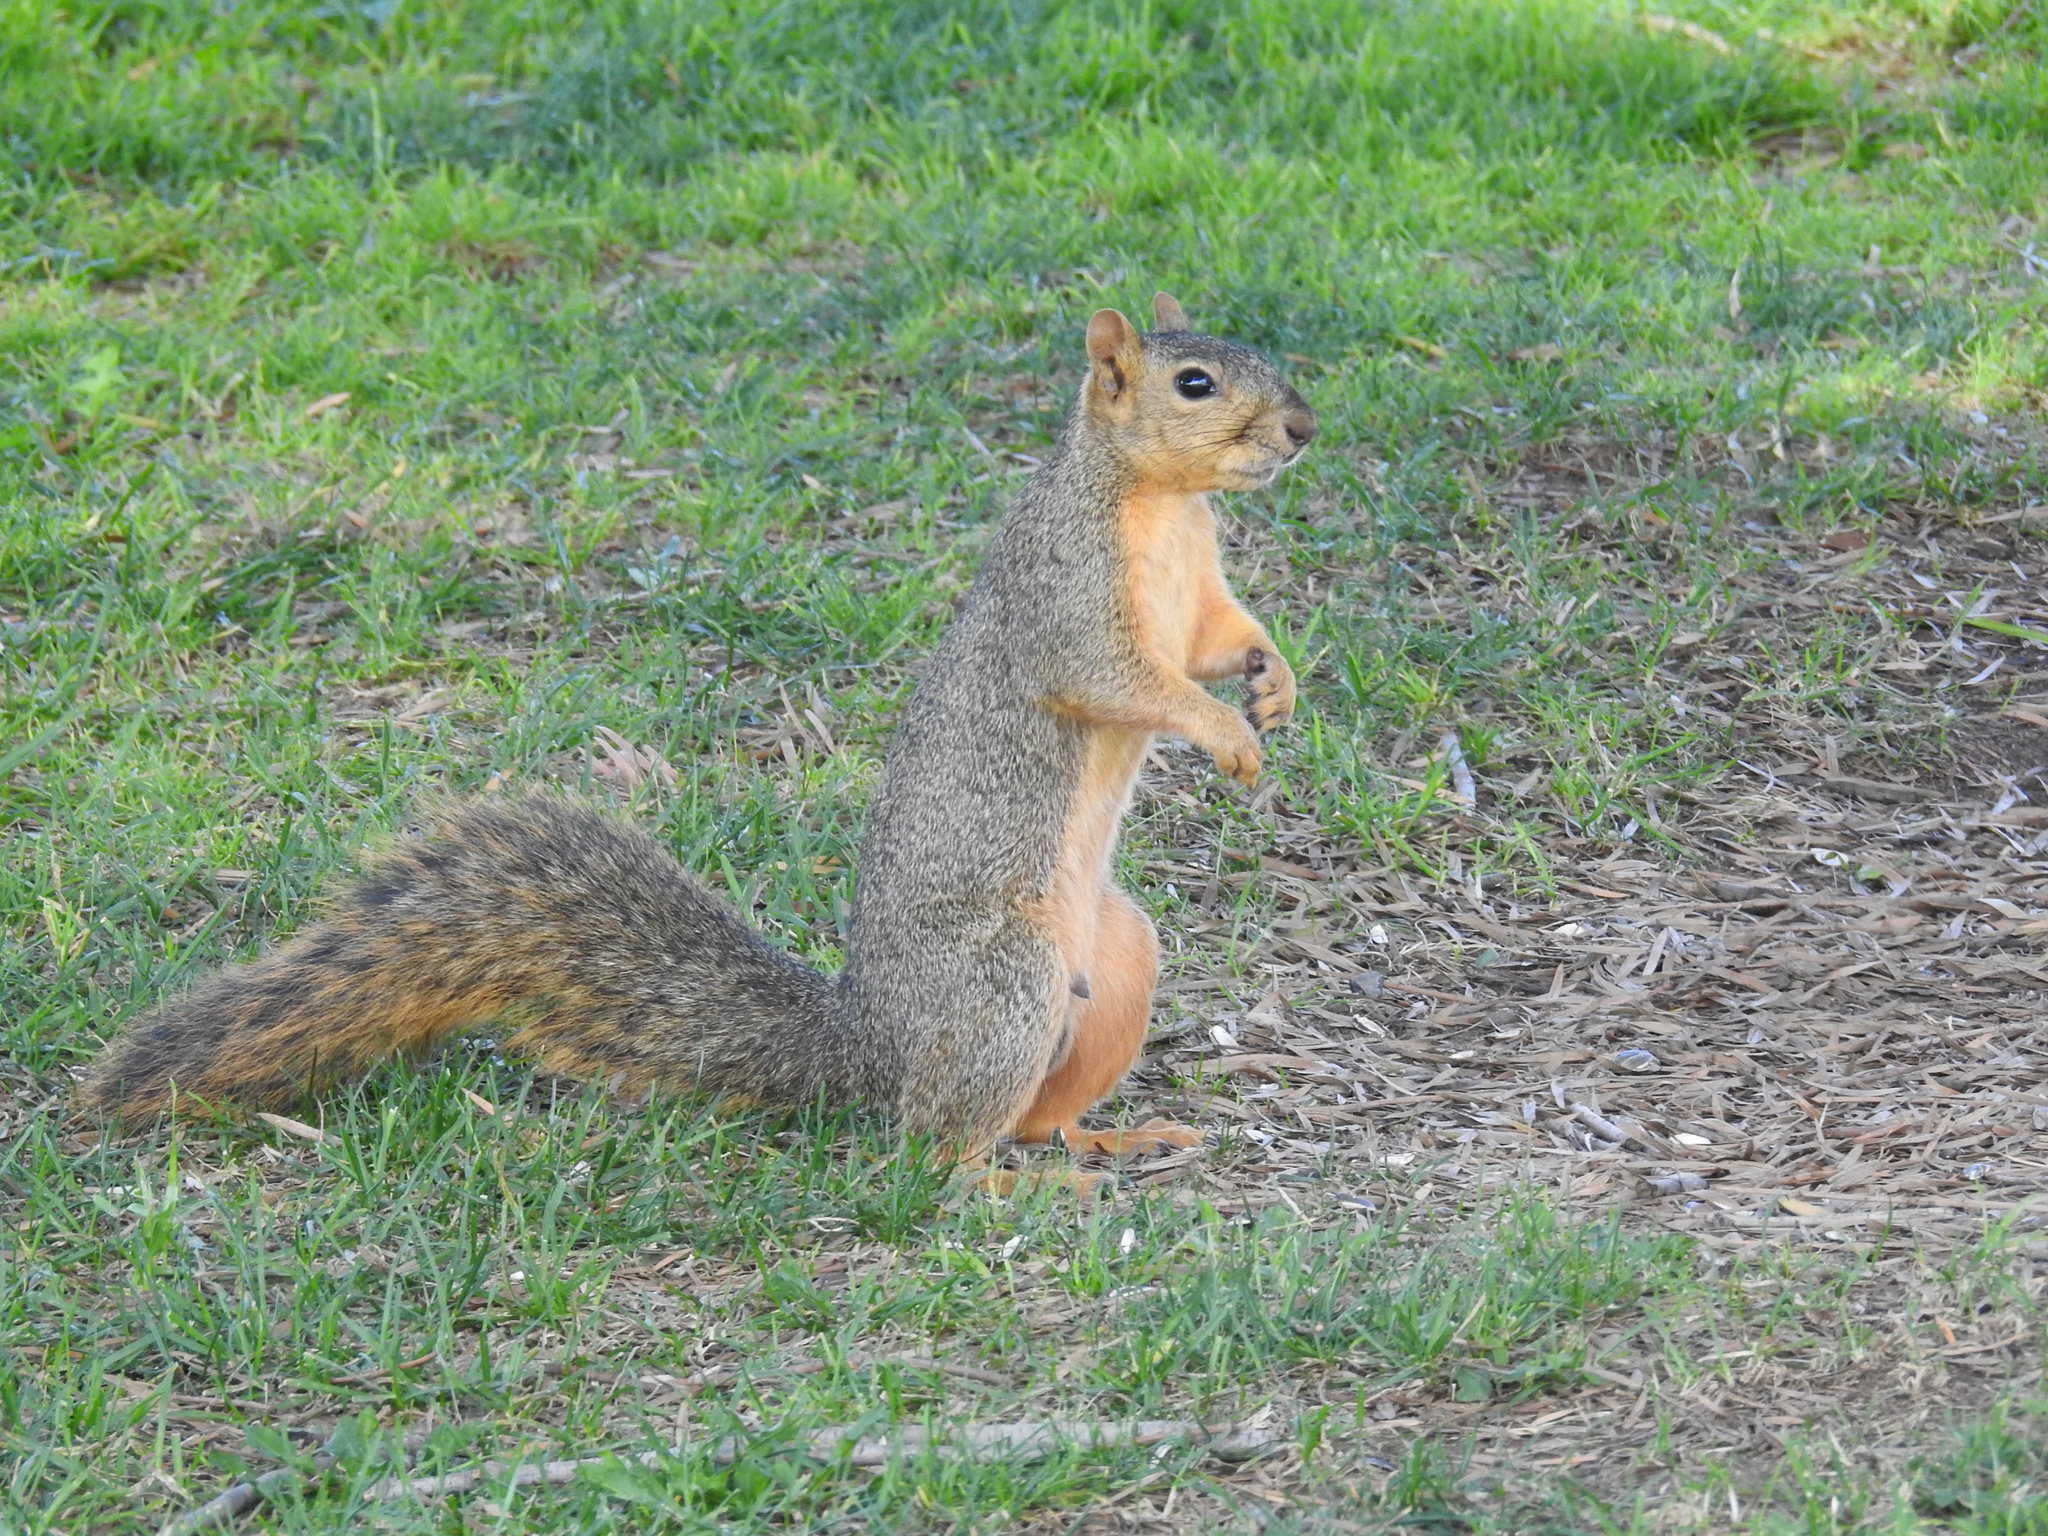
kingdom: Animalia
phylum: Chordata
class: Mammalia
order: Rodentia
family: Sciuridae
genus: Sciurus
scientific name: Sciurus niger
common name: Fox squirrel
